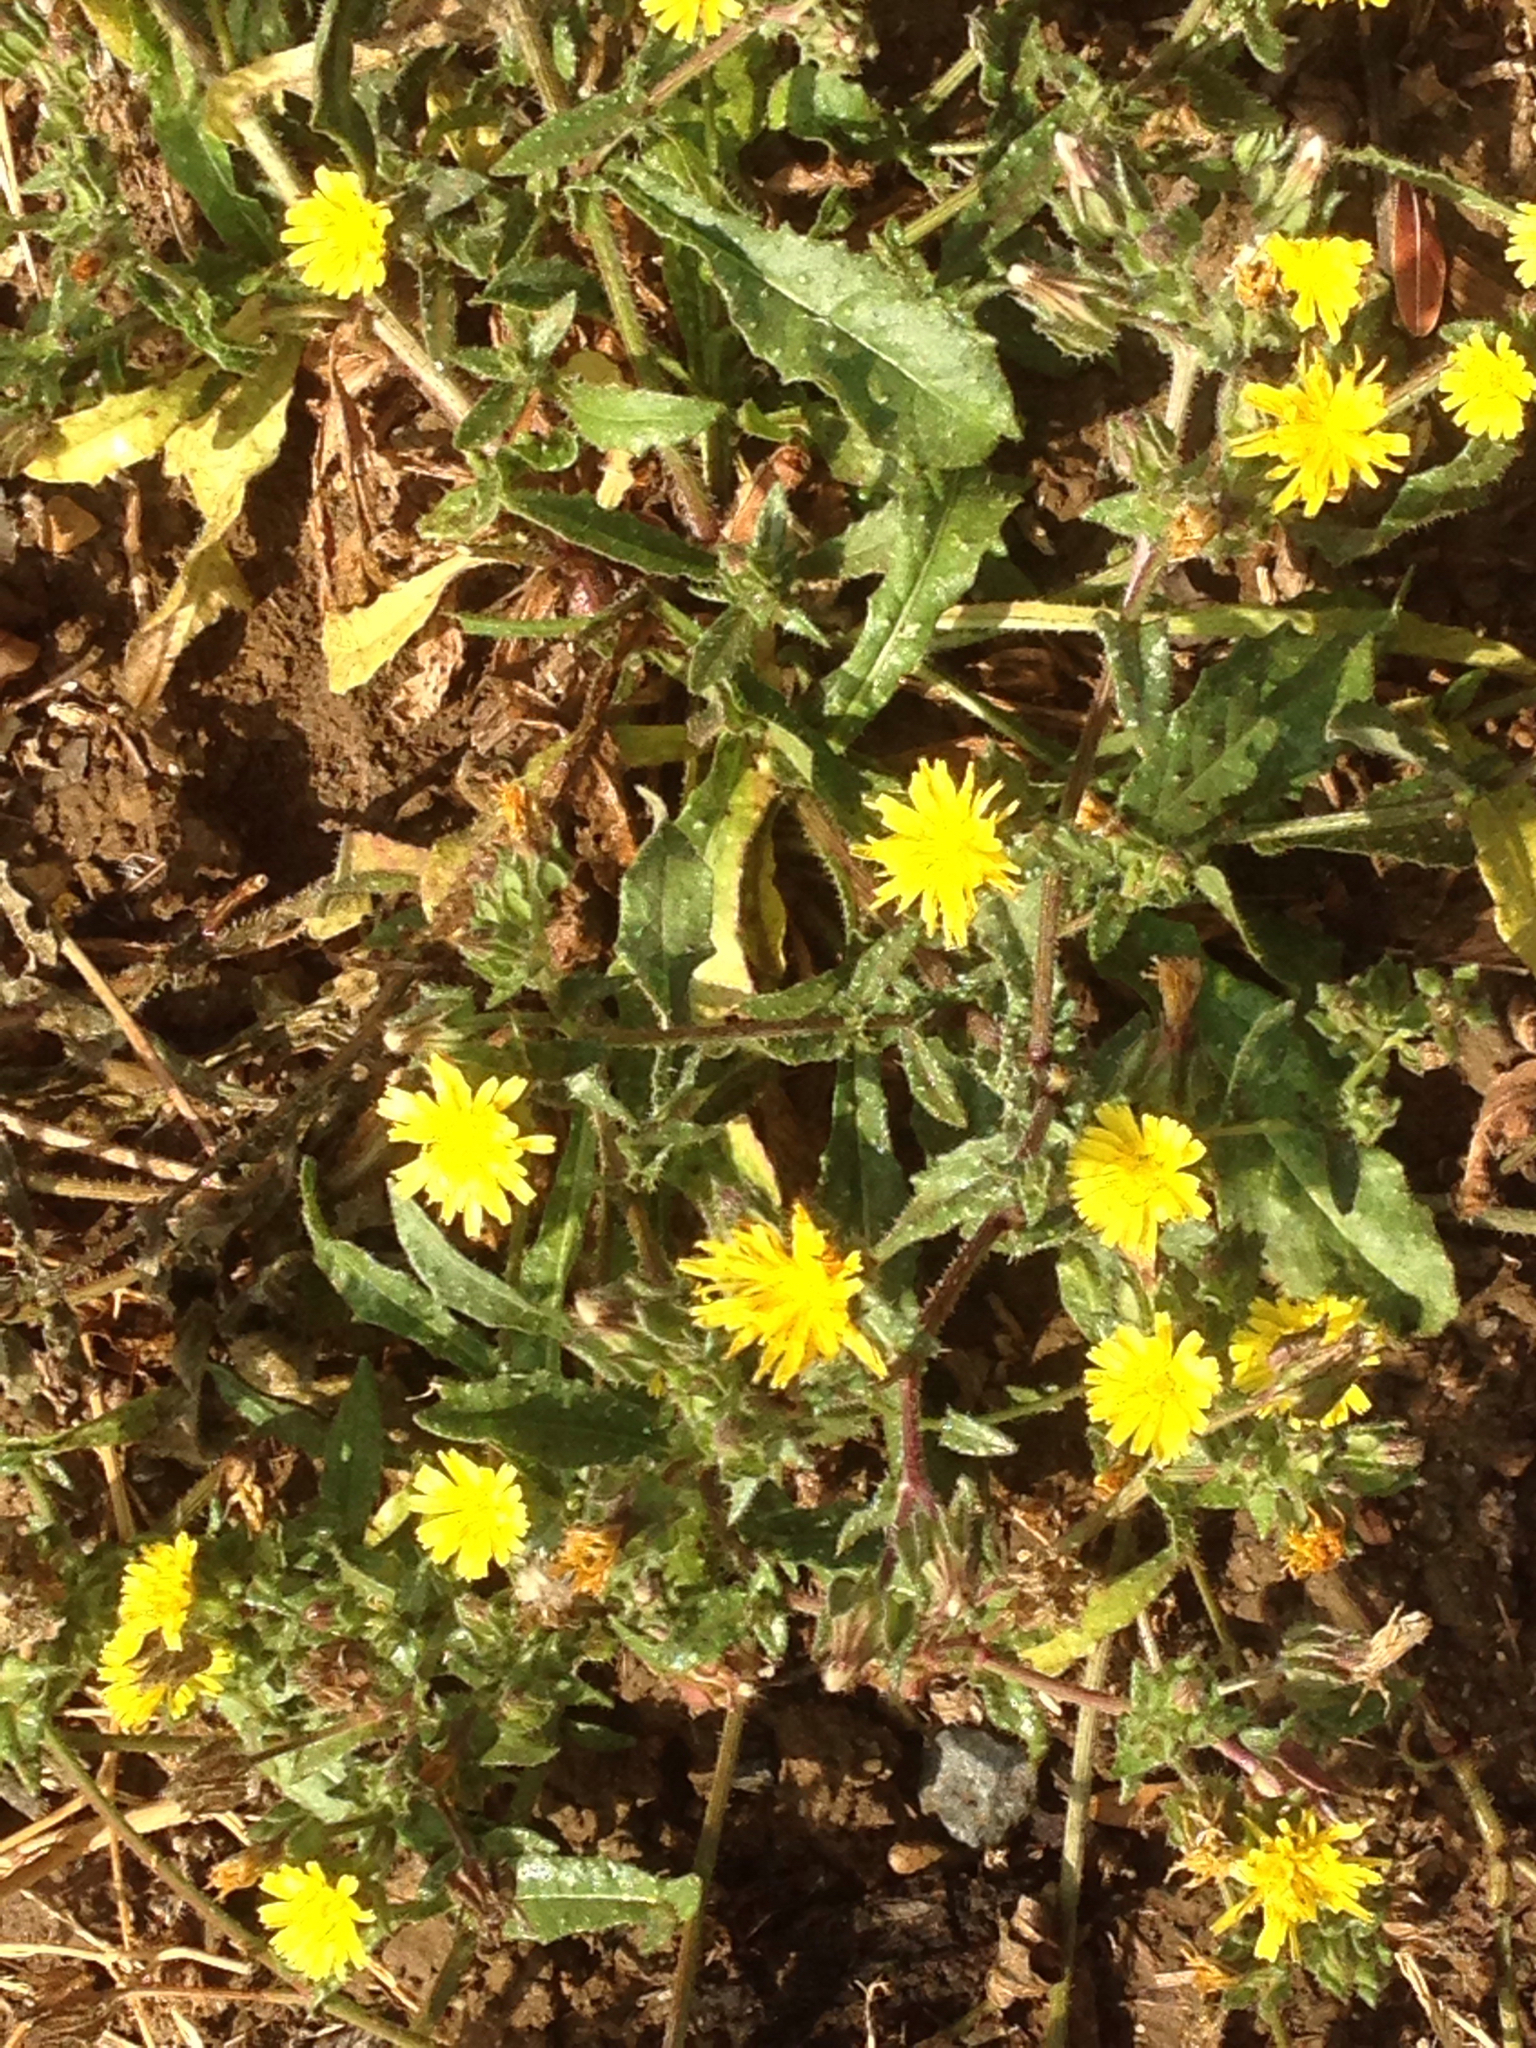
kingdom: Plantae
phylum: Tracheophyta
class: Magnoliopsida
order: Asterales
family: Asteraceae
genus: Helminthotheca
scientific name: Helminthotheca echioides
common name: Ox-tongue
